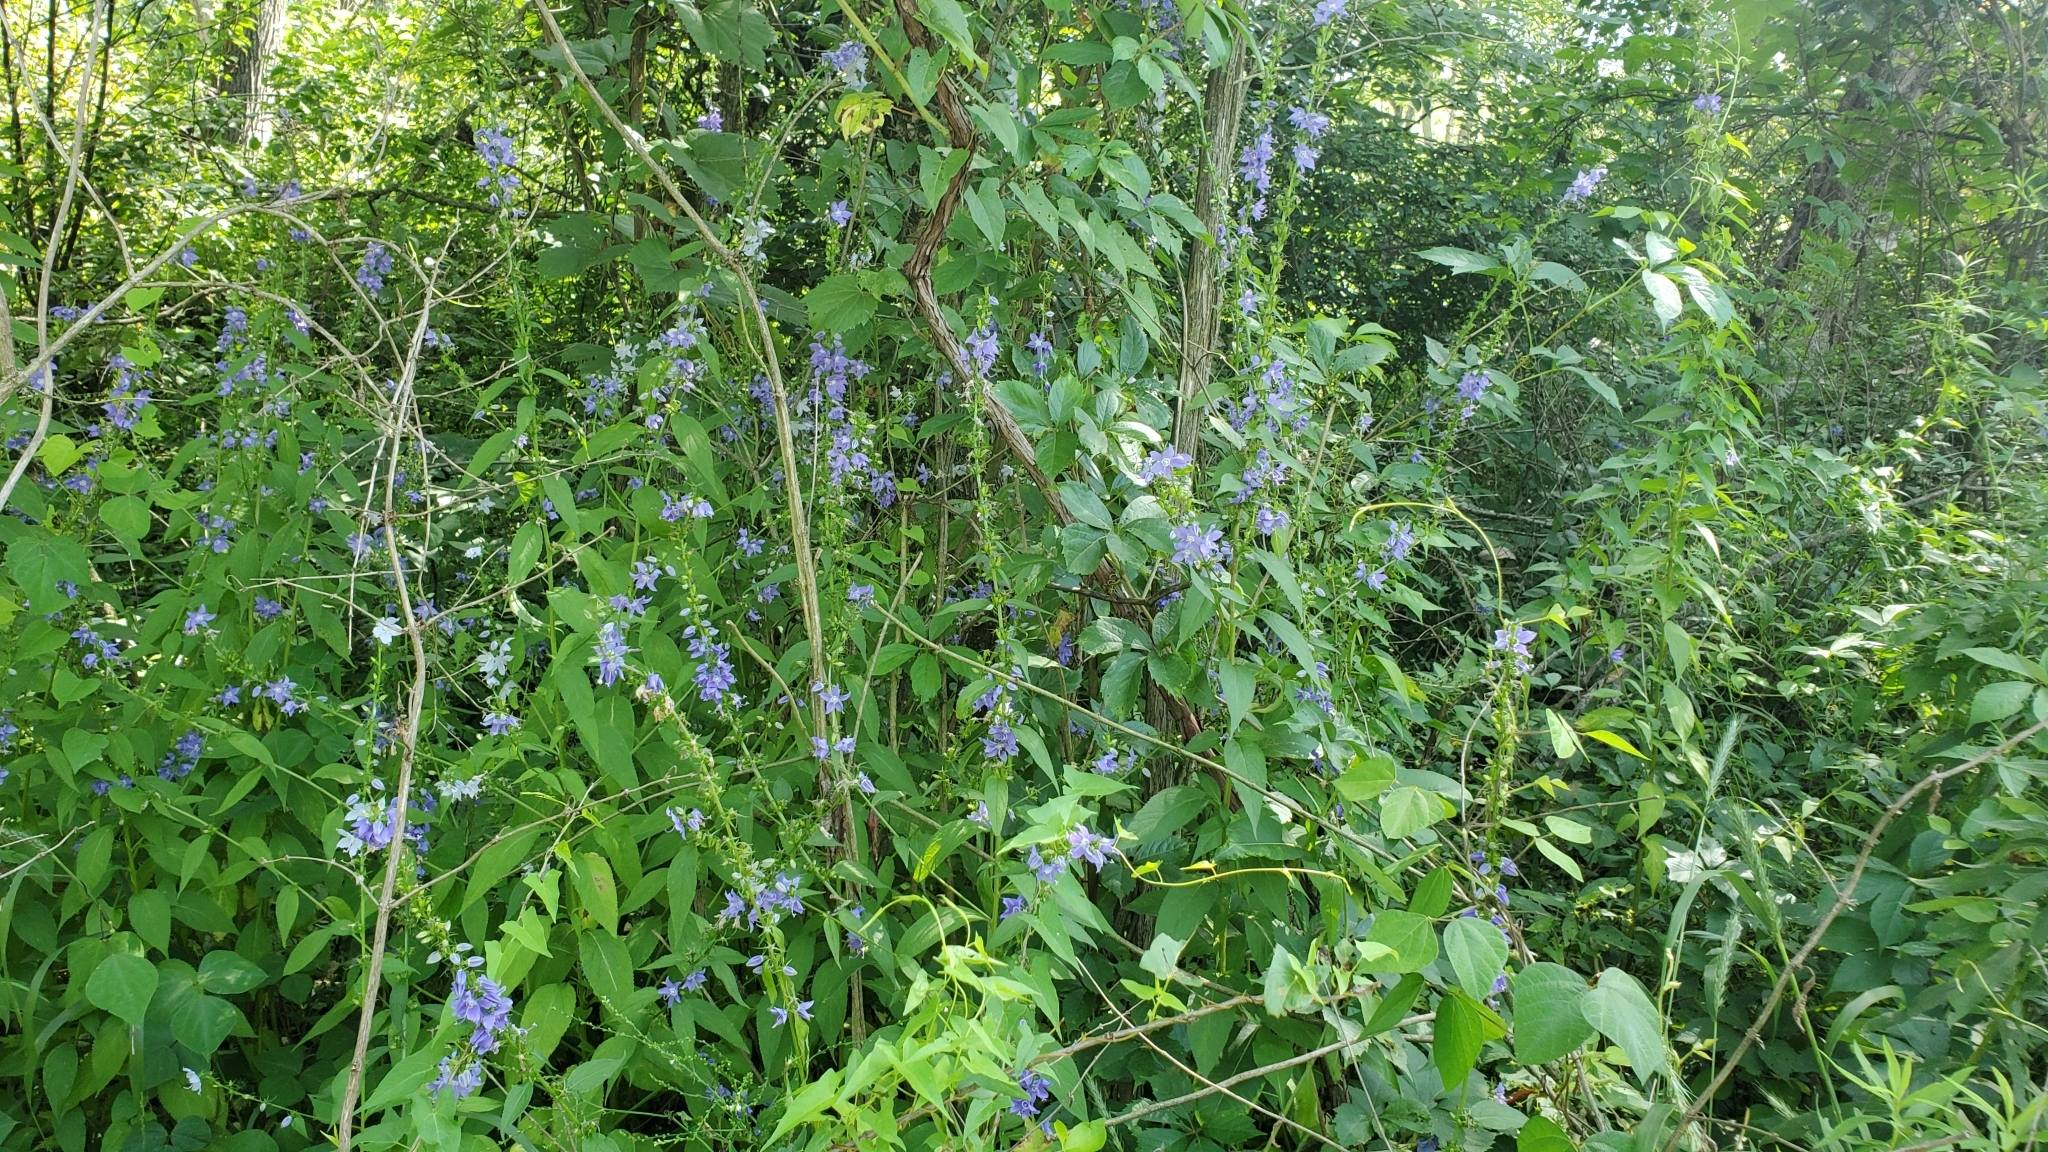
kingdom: Plantae
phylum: Tracheophyta
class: Magnoliopsida
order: Asterales
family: Campanulaceae
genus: Campanulastrum
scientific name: Campanulastrum americanum
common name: American bellflower
